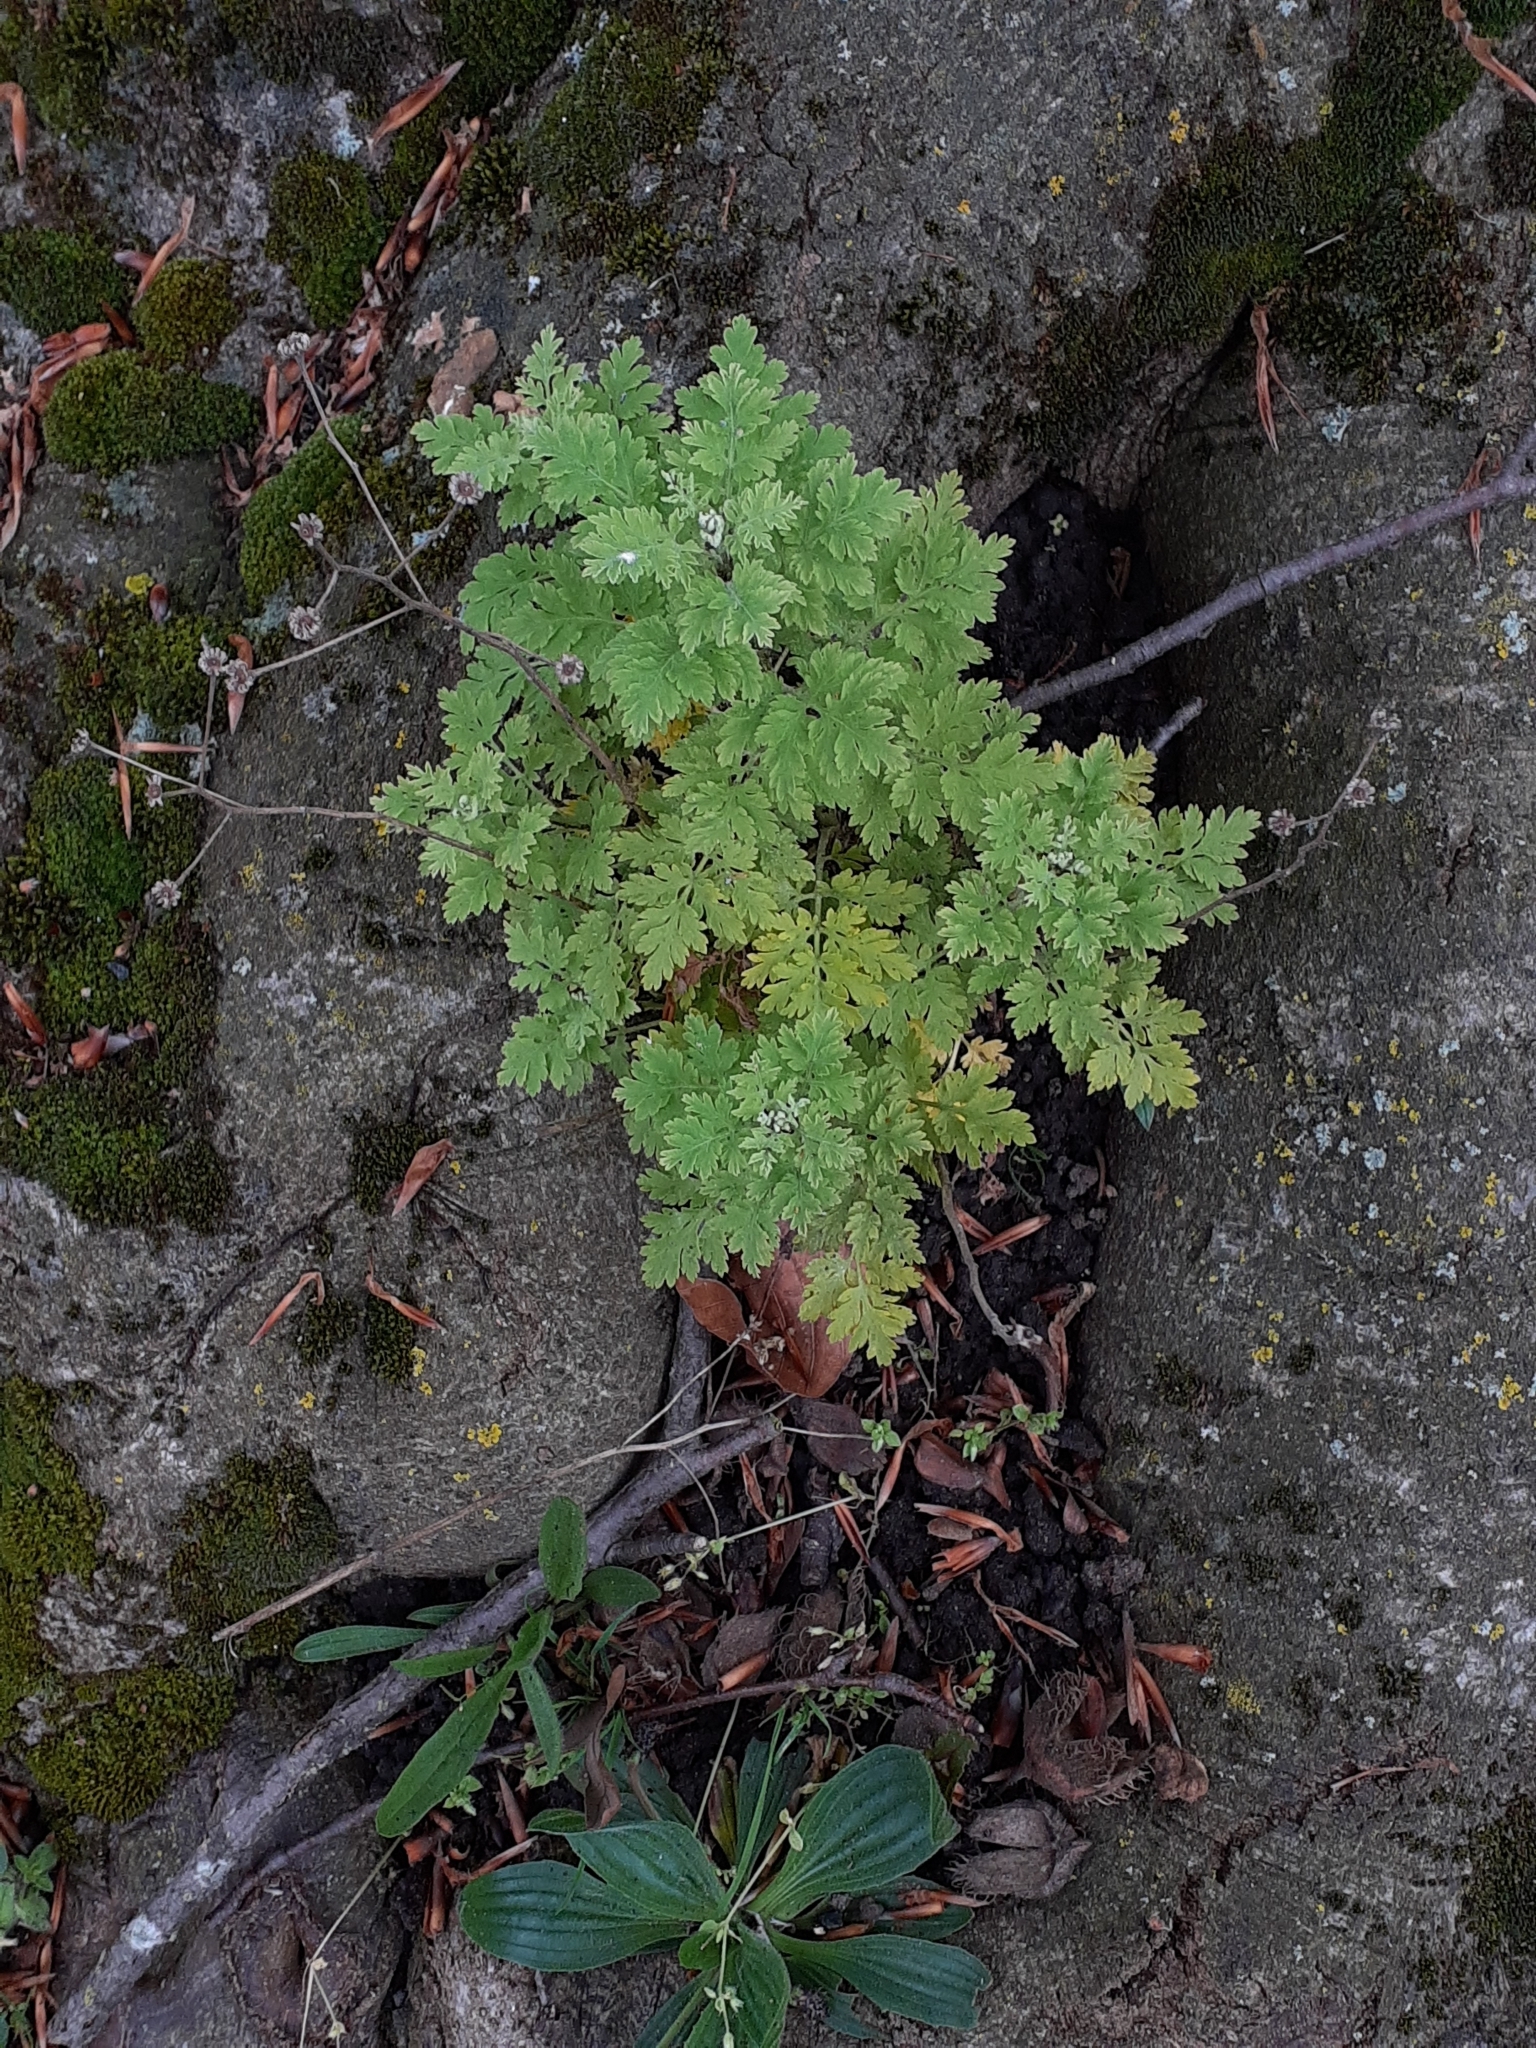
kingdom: Plantae
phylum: Tracheophyta
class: Magnoliopsida
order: Asterales
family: Asteraceae
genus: Tanacetum
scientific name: Tanacetum parthenium
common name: Feverfew
